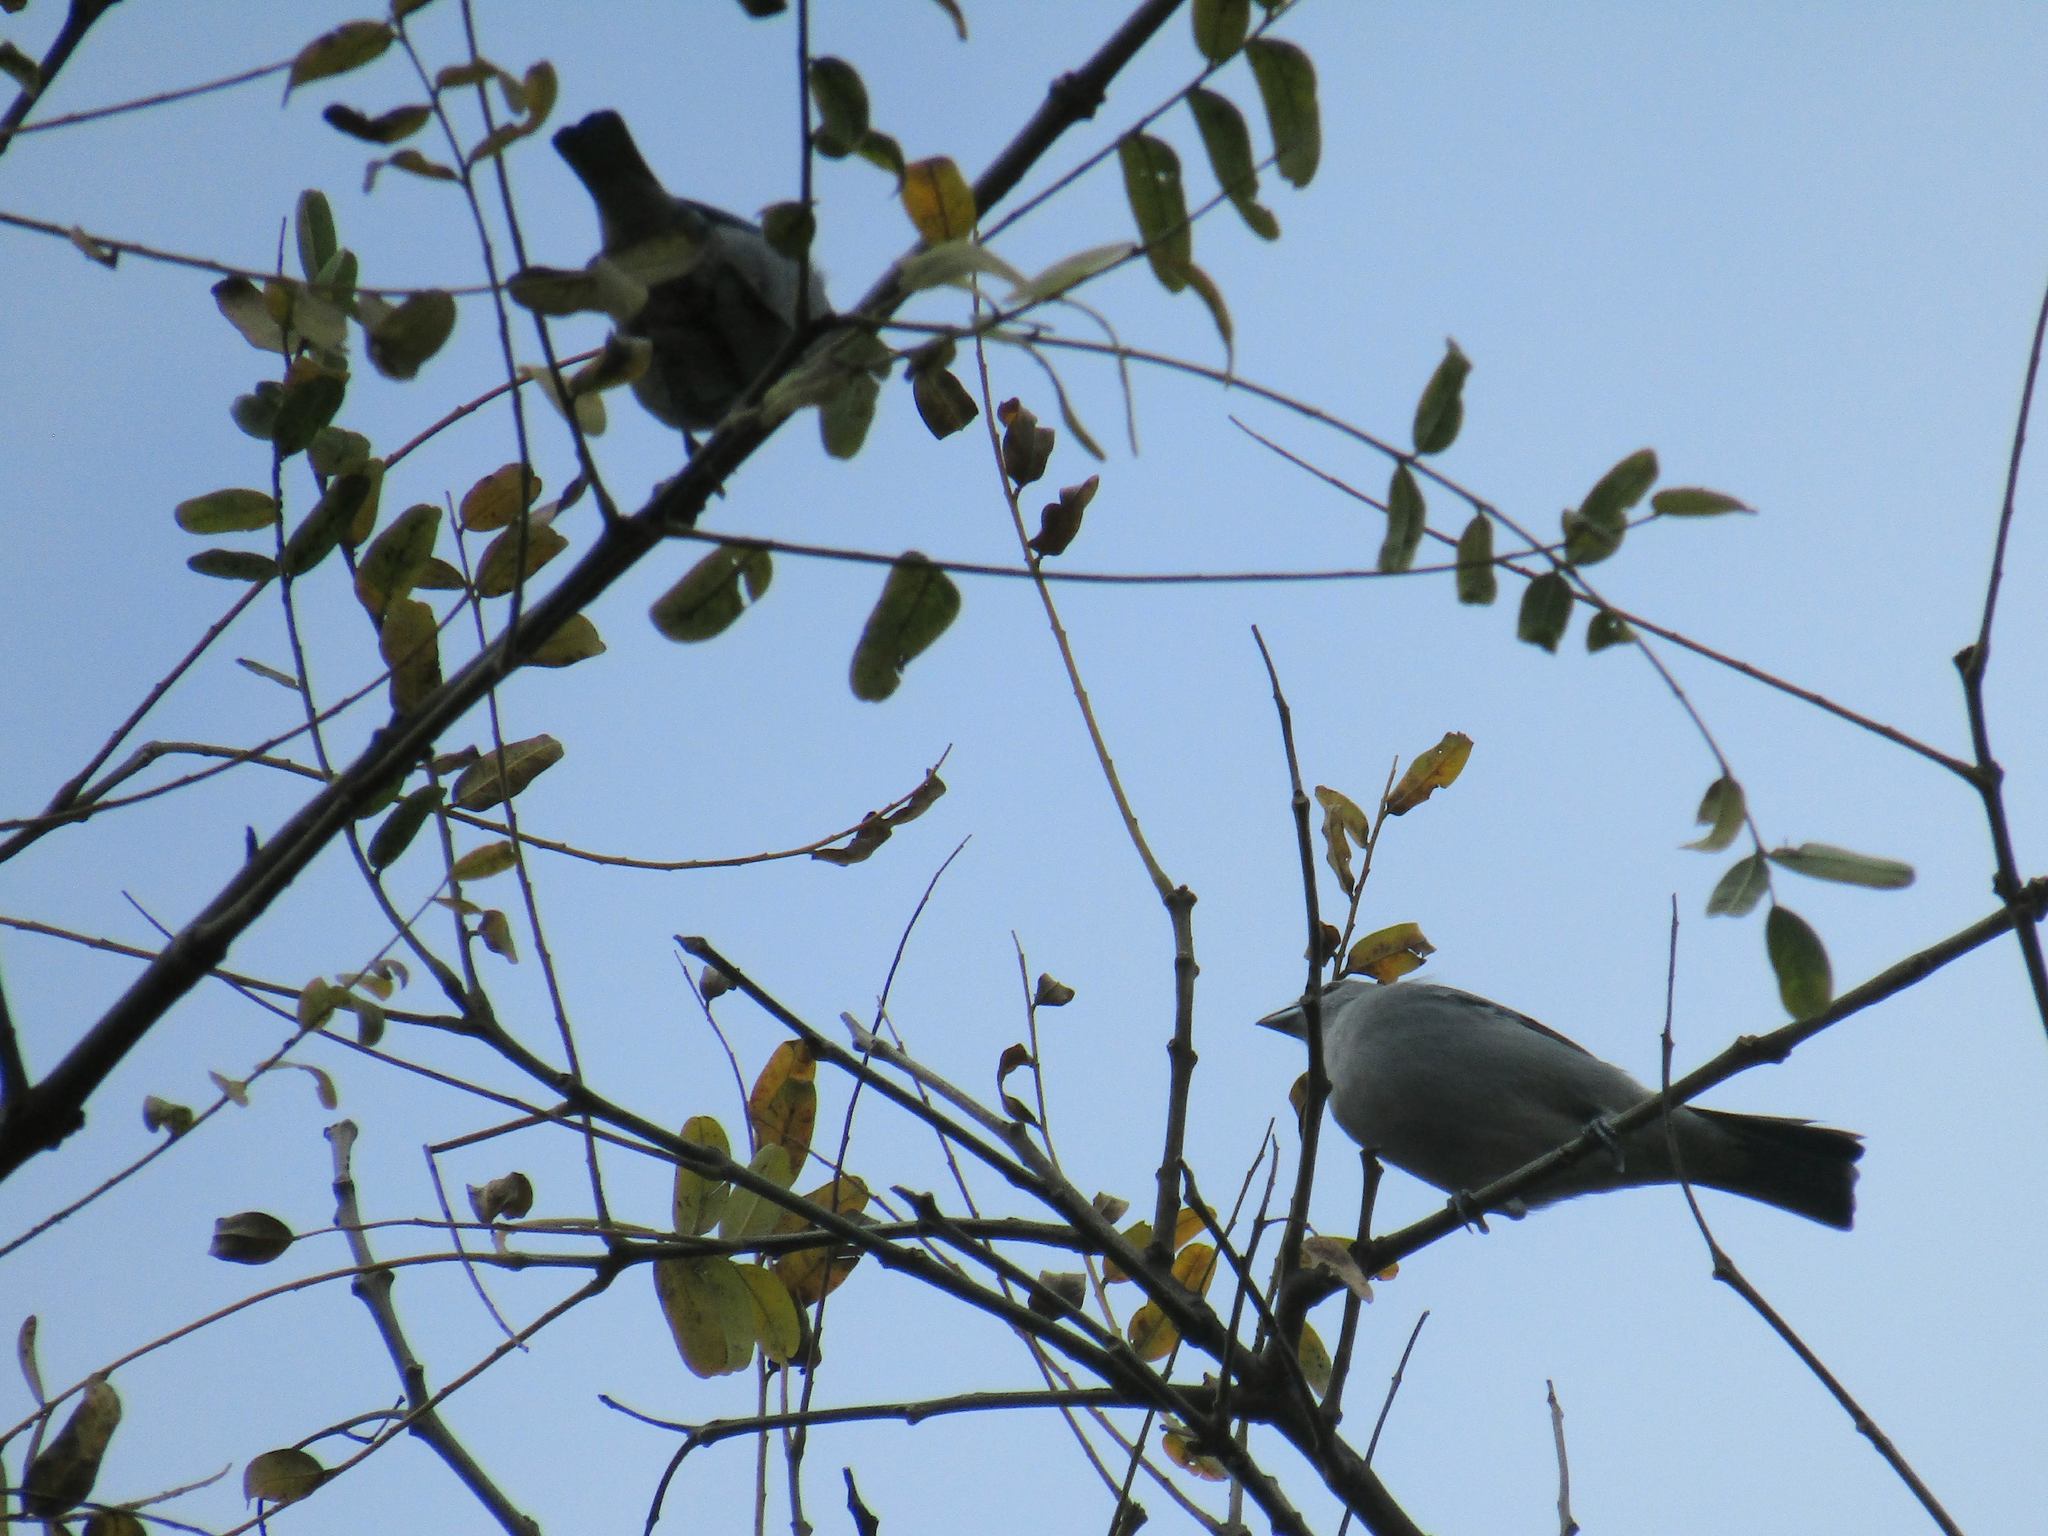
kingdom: Animalia
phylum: Chordata
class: Aves
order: Passeriformes
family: Thraupidae
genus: Thraupis
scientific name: Thraupis sayaca
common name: Sayaca tanager
